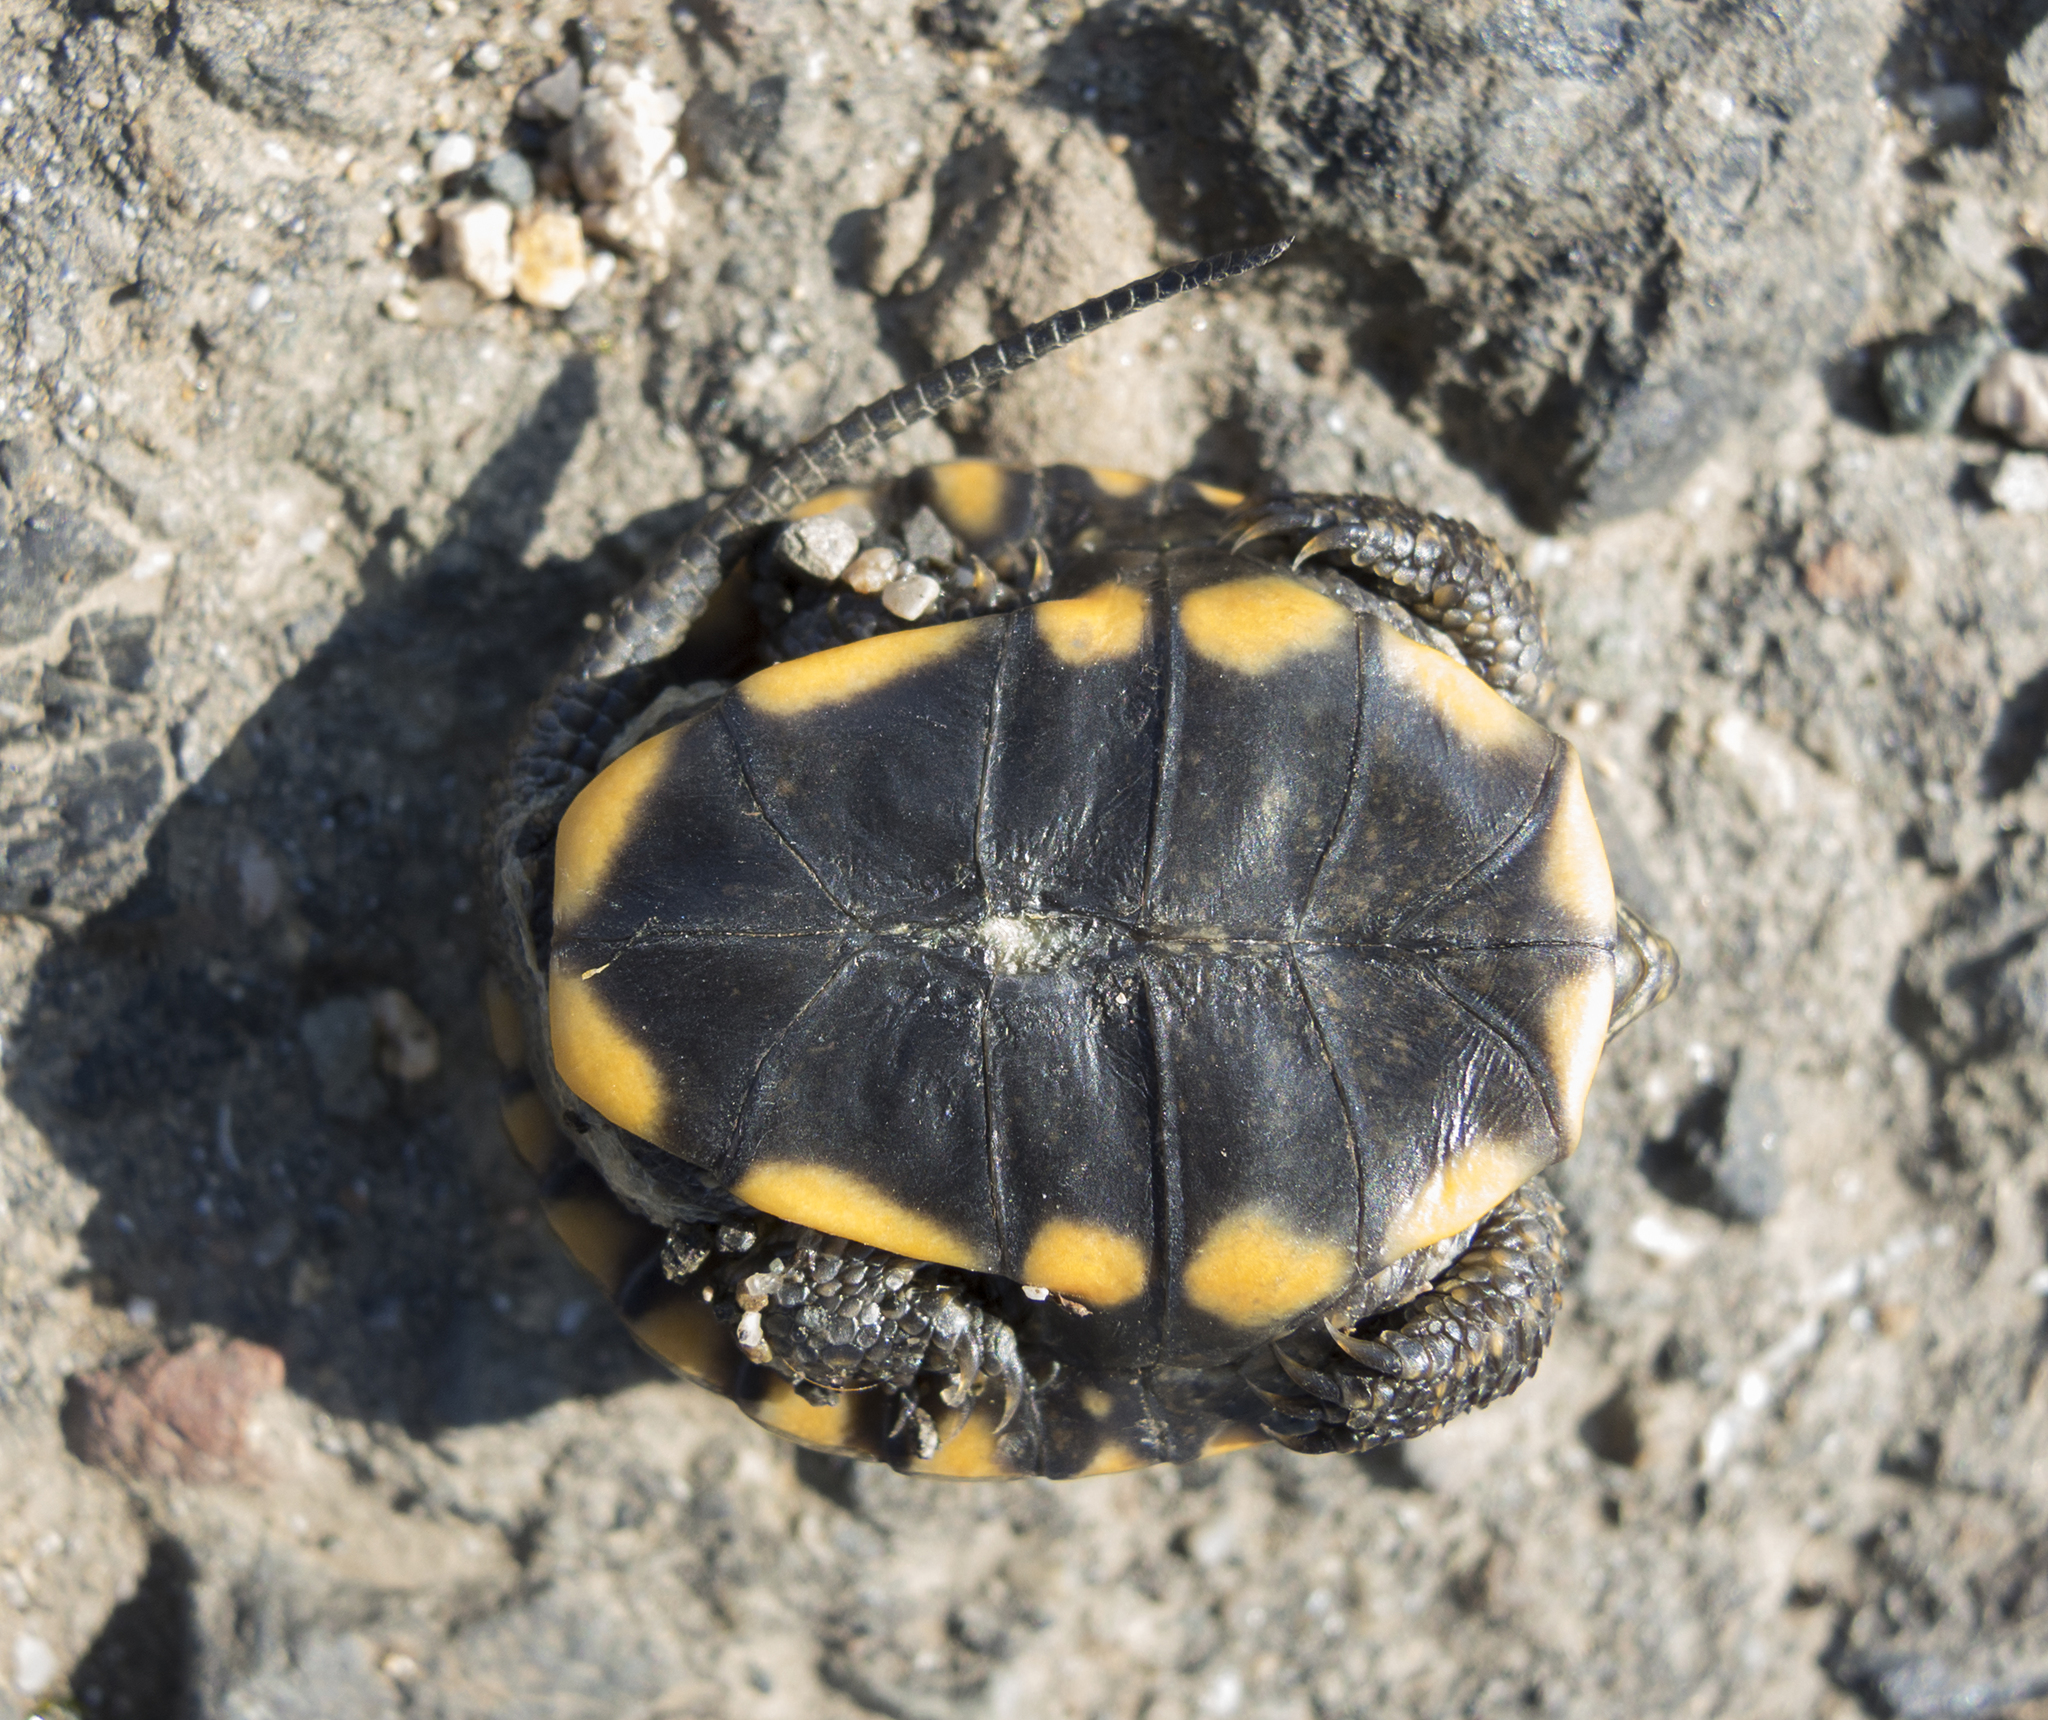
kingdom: Animalia
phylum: Chordata
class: Testudines
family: Emydidae
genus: Emys
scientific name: Emys orbicularis
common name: European pond turtle
